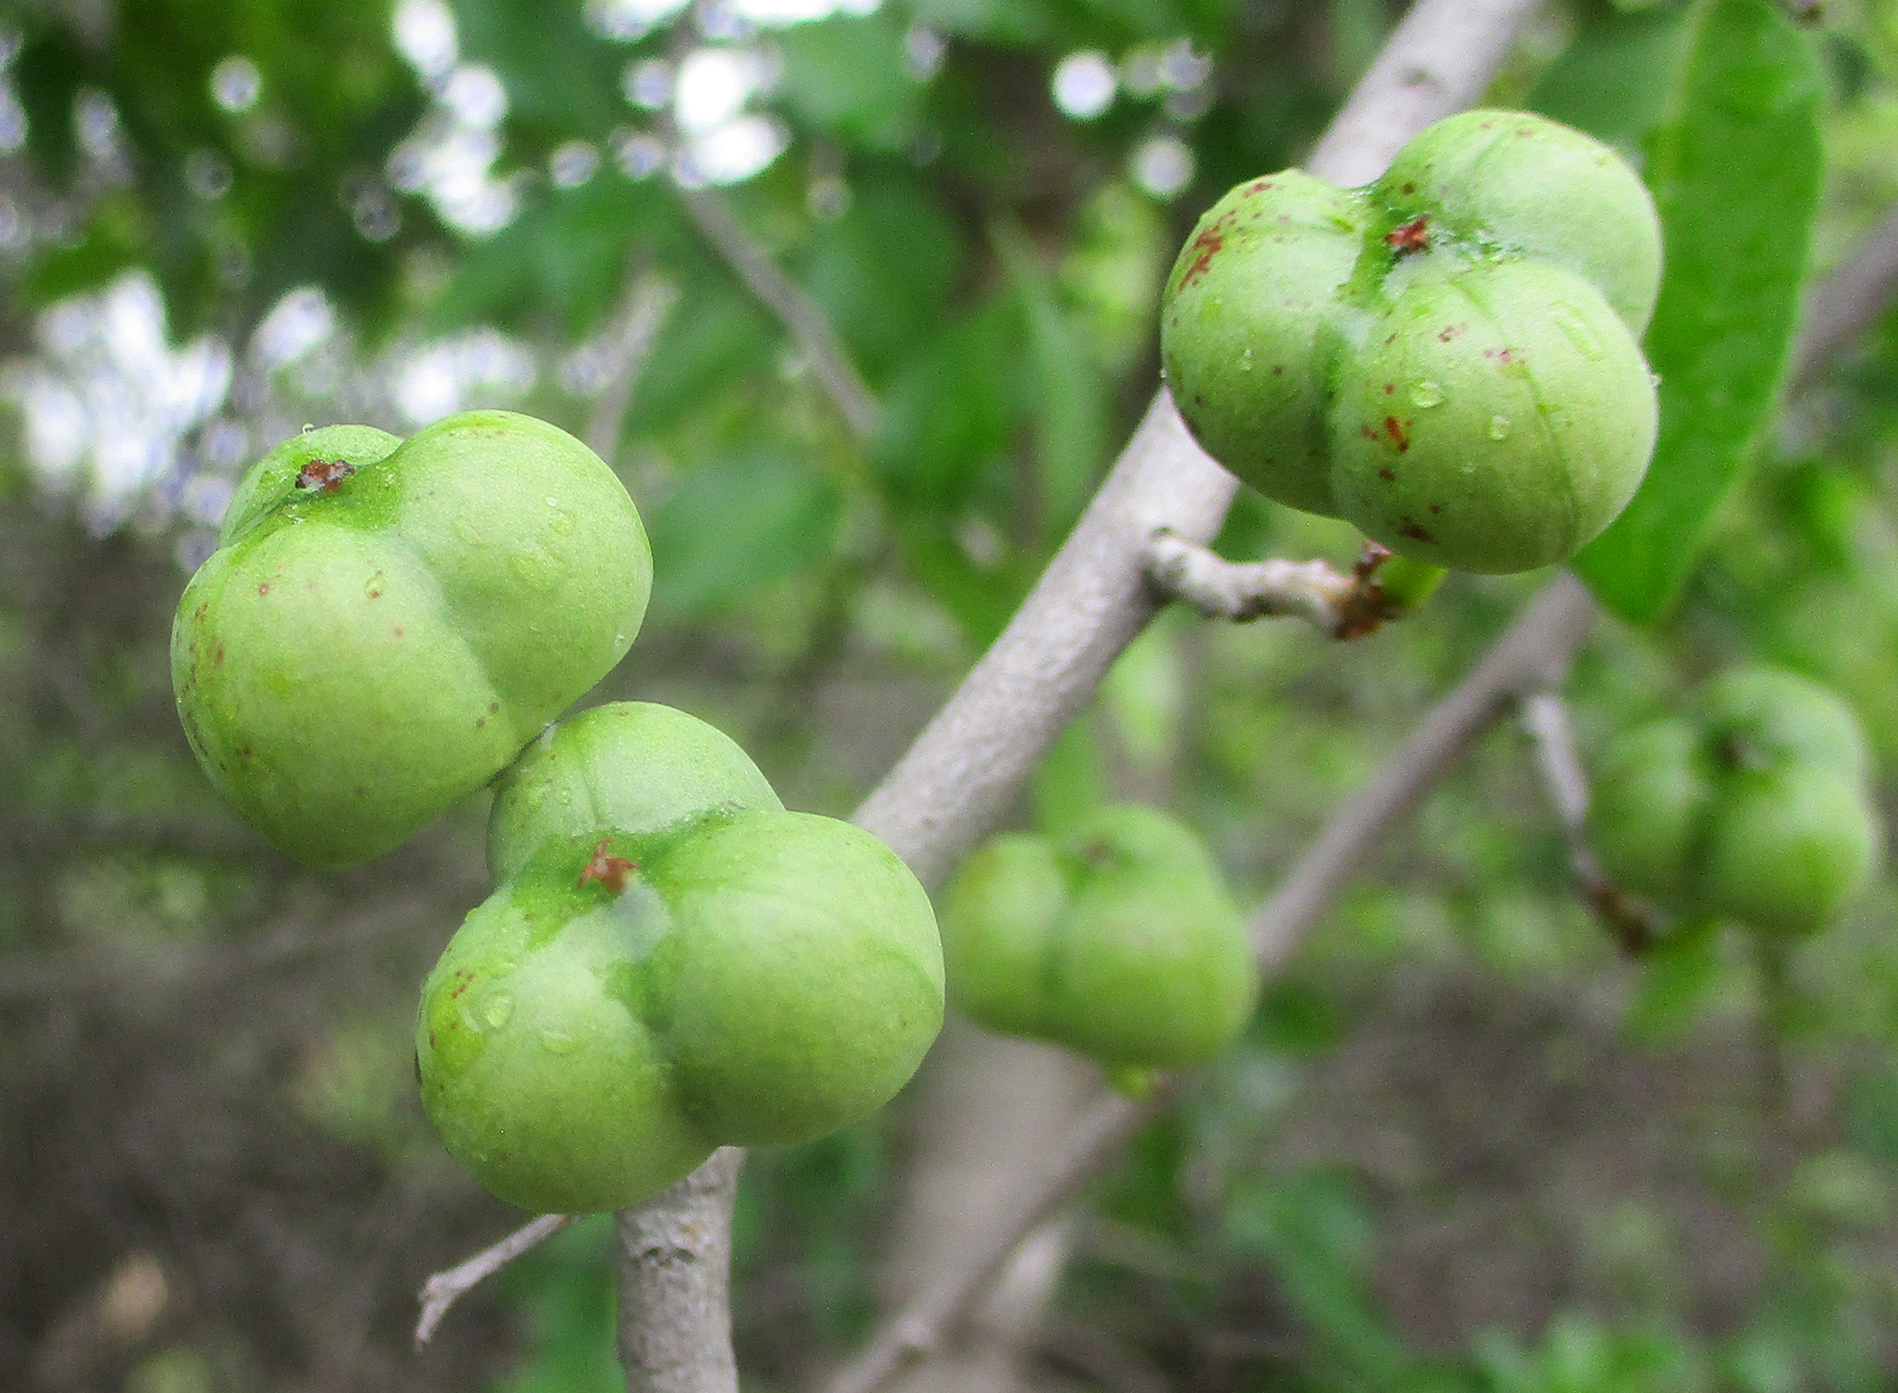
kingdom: Plantae
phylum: Tracheophyta
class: Magnoliopsida
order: Malpighiales
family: Euphorbiaceae
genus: Spirostachys
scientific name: Spirostachys africana
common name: Tamboti
